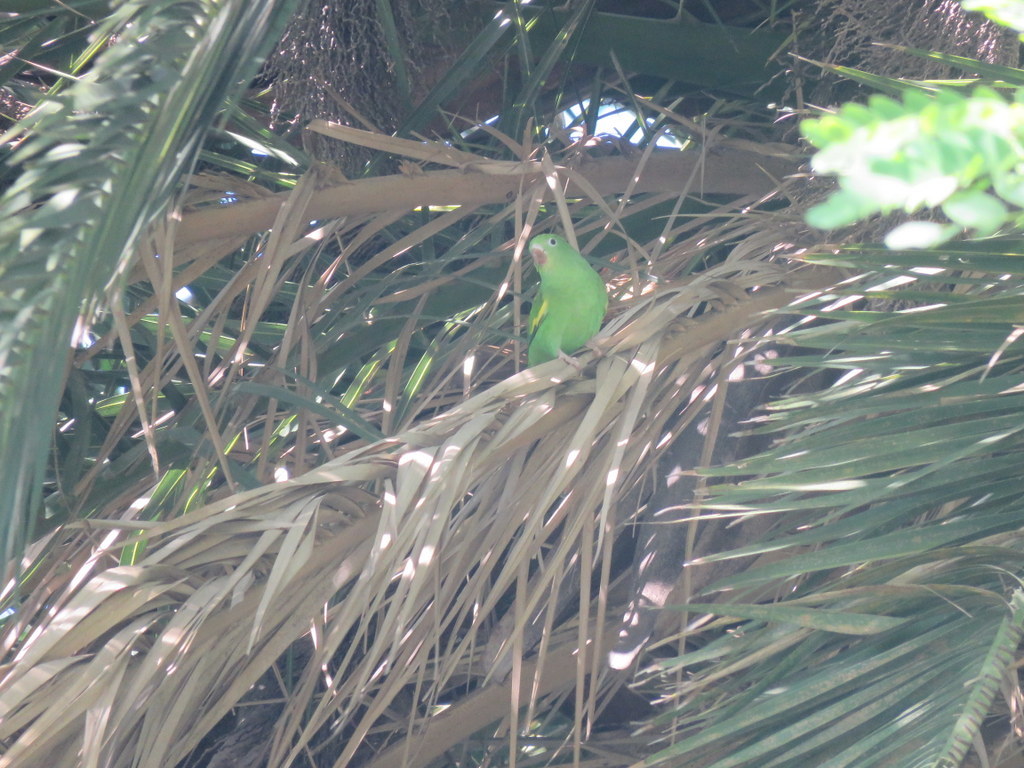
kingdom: Animalia
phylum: Chordata
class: Aves
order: Psittaciformes
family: Psittacidae
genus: Brotogeris
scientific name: Brotogeris chiriri
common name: Yellow-chevroned parakeet
